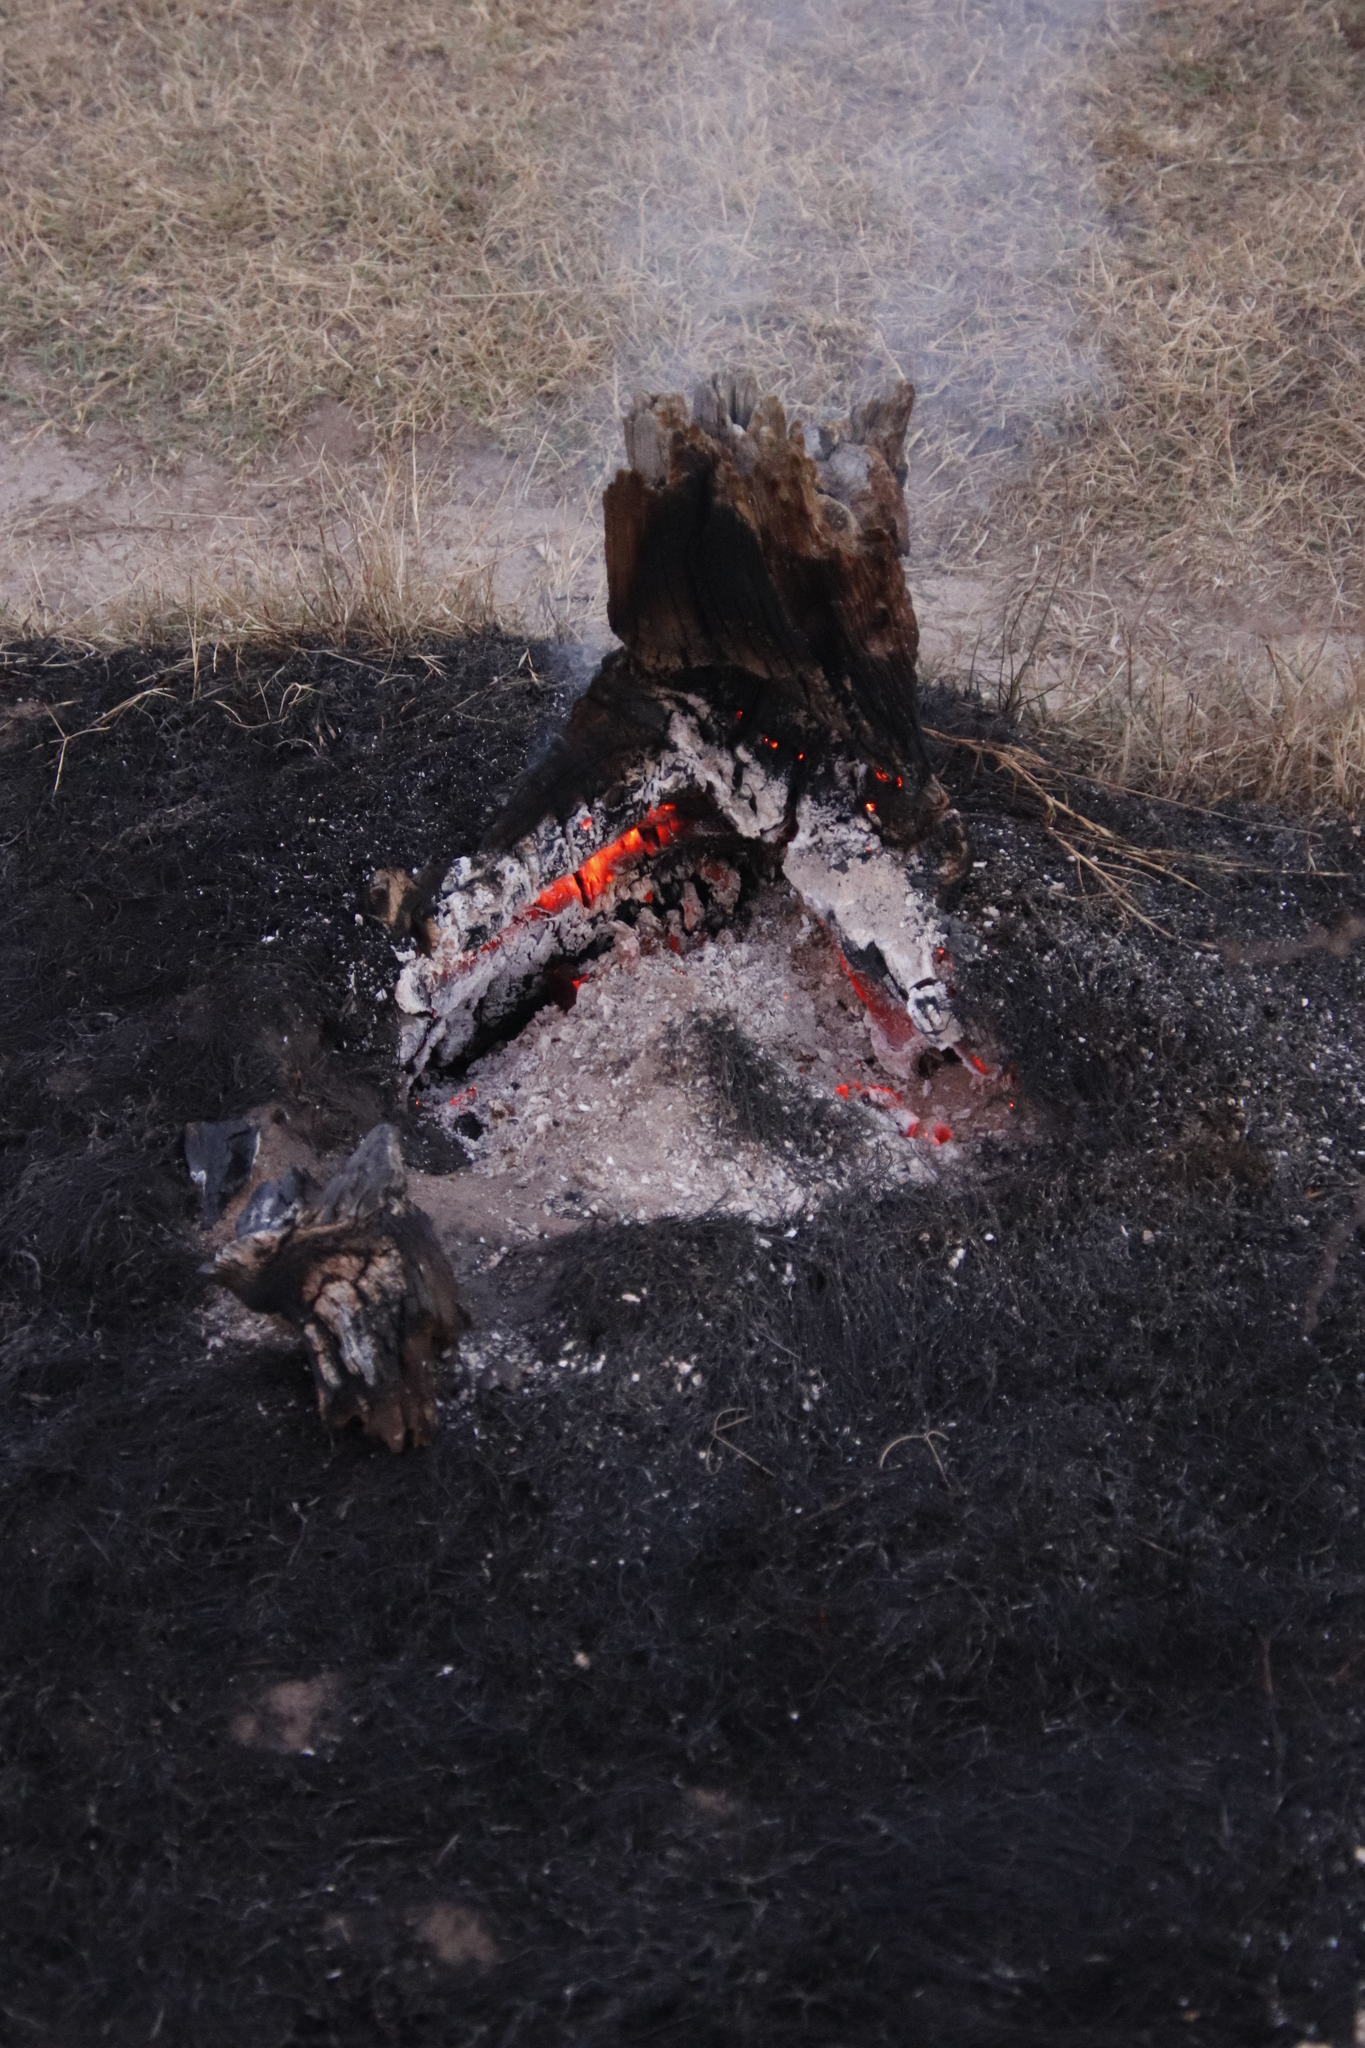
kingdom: Plantae
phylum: Tracheophyta
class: Pinopsida
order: Pinales
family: Pinaceae
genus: Pinus
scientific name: Pinus radiata
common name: Monterey pine
